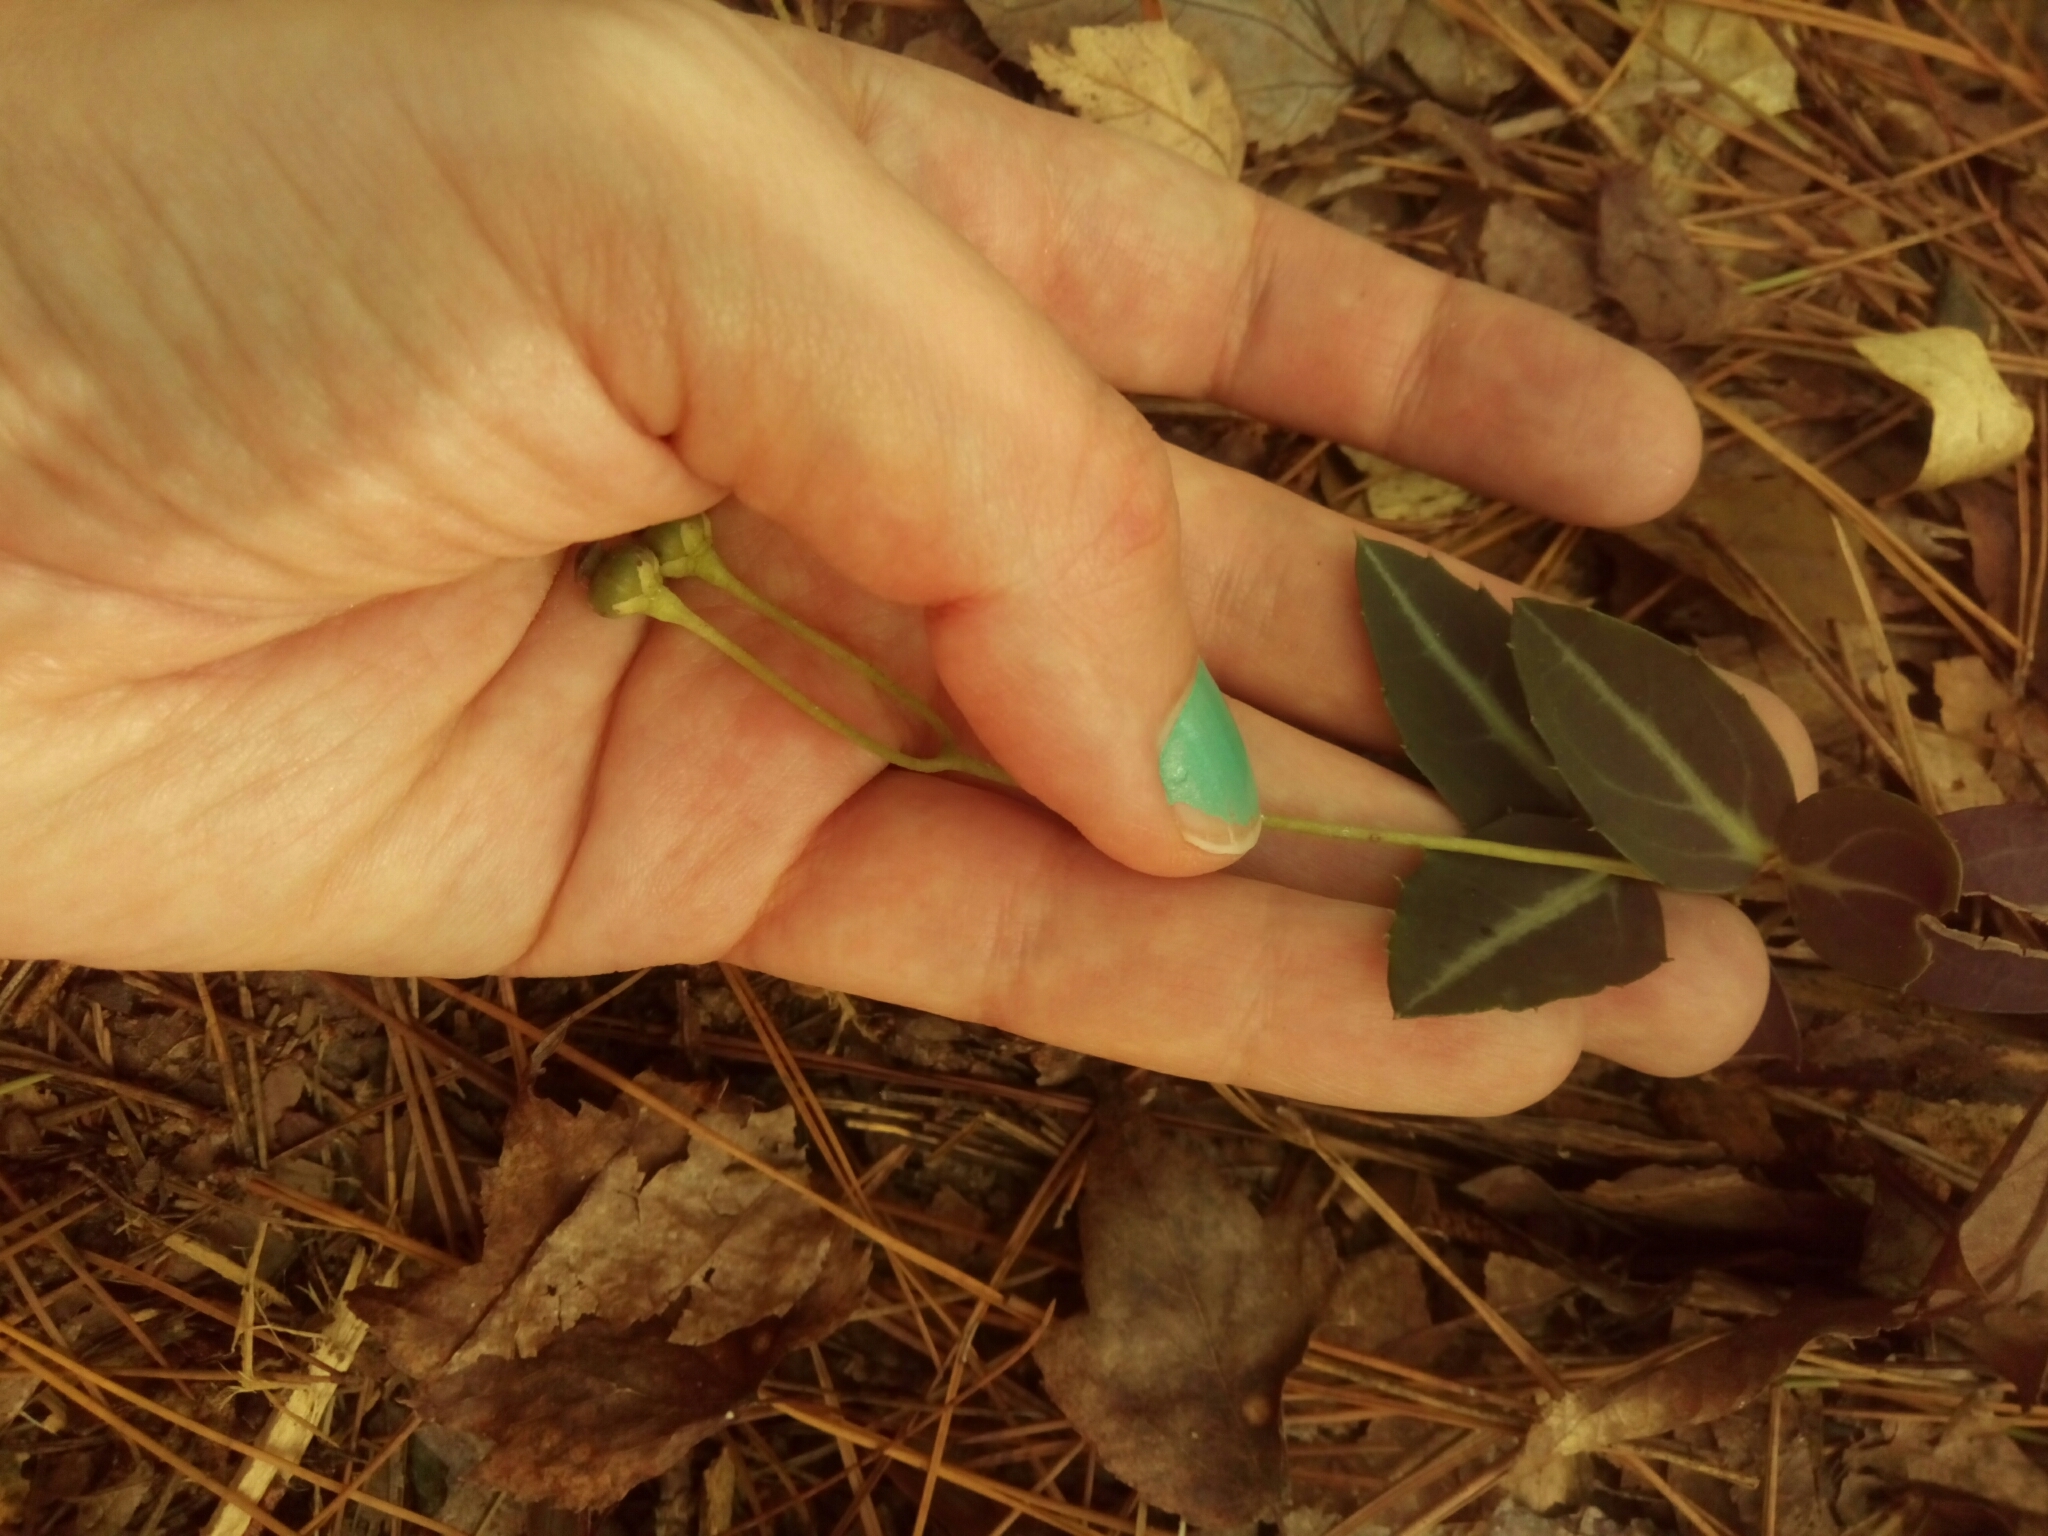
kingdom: Plantae
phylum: Tracheophyta
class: Magnoliopsida
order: Ericales
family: Ericaceae
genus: Chimaphila
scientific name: Chimaphila maculata
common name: Spotted pipsissewa
